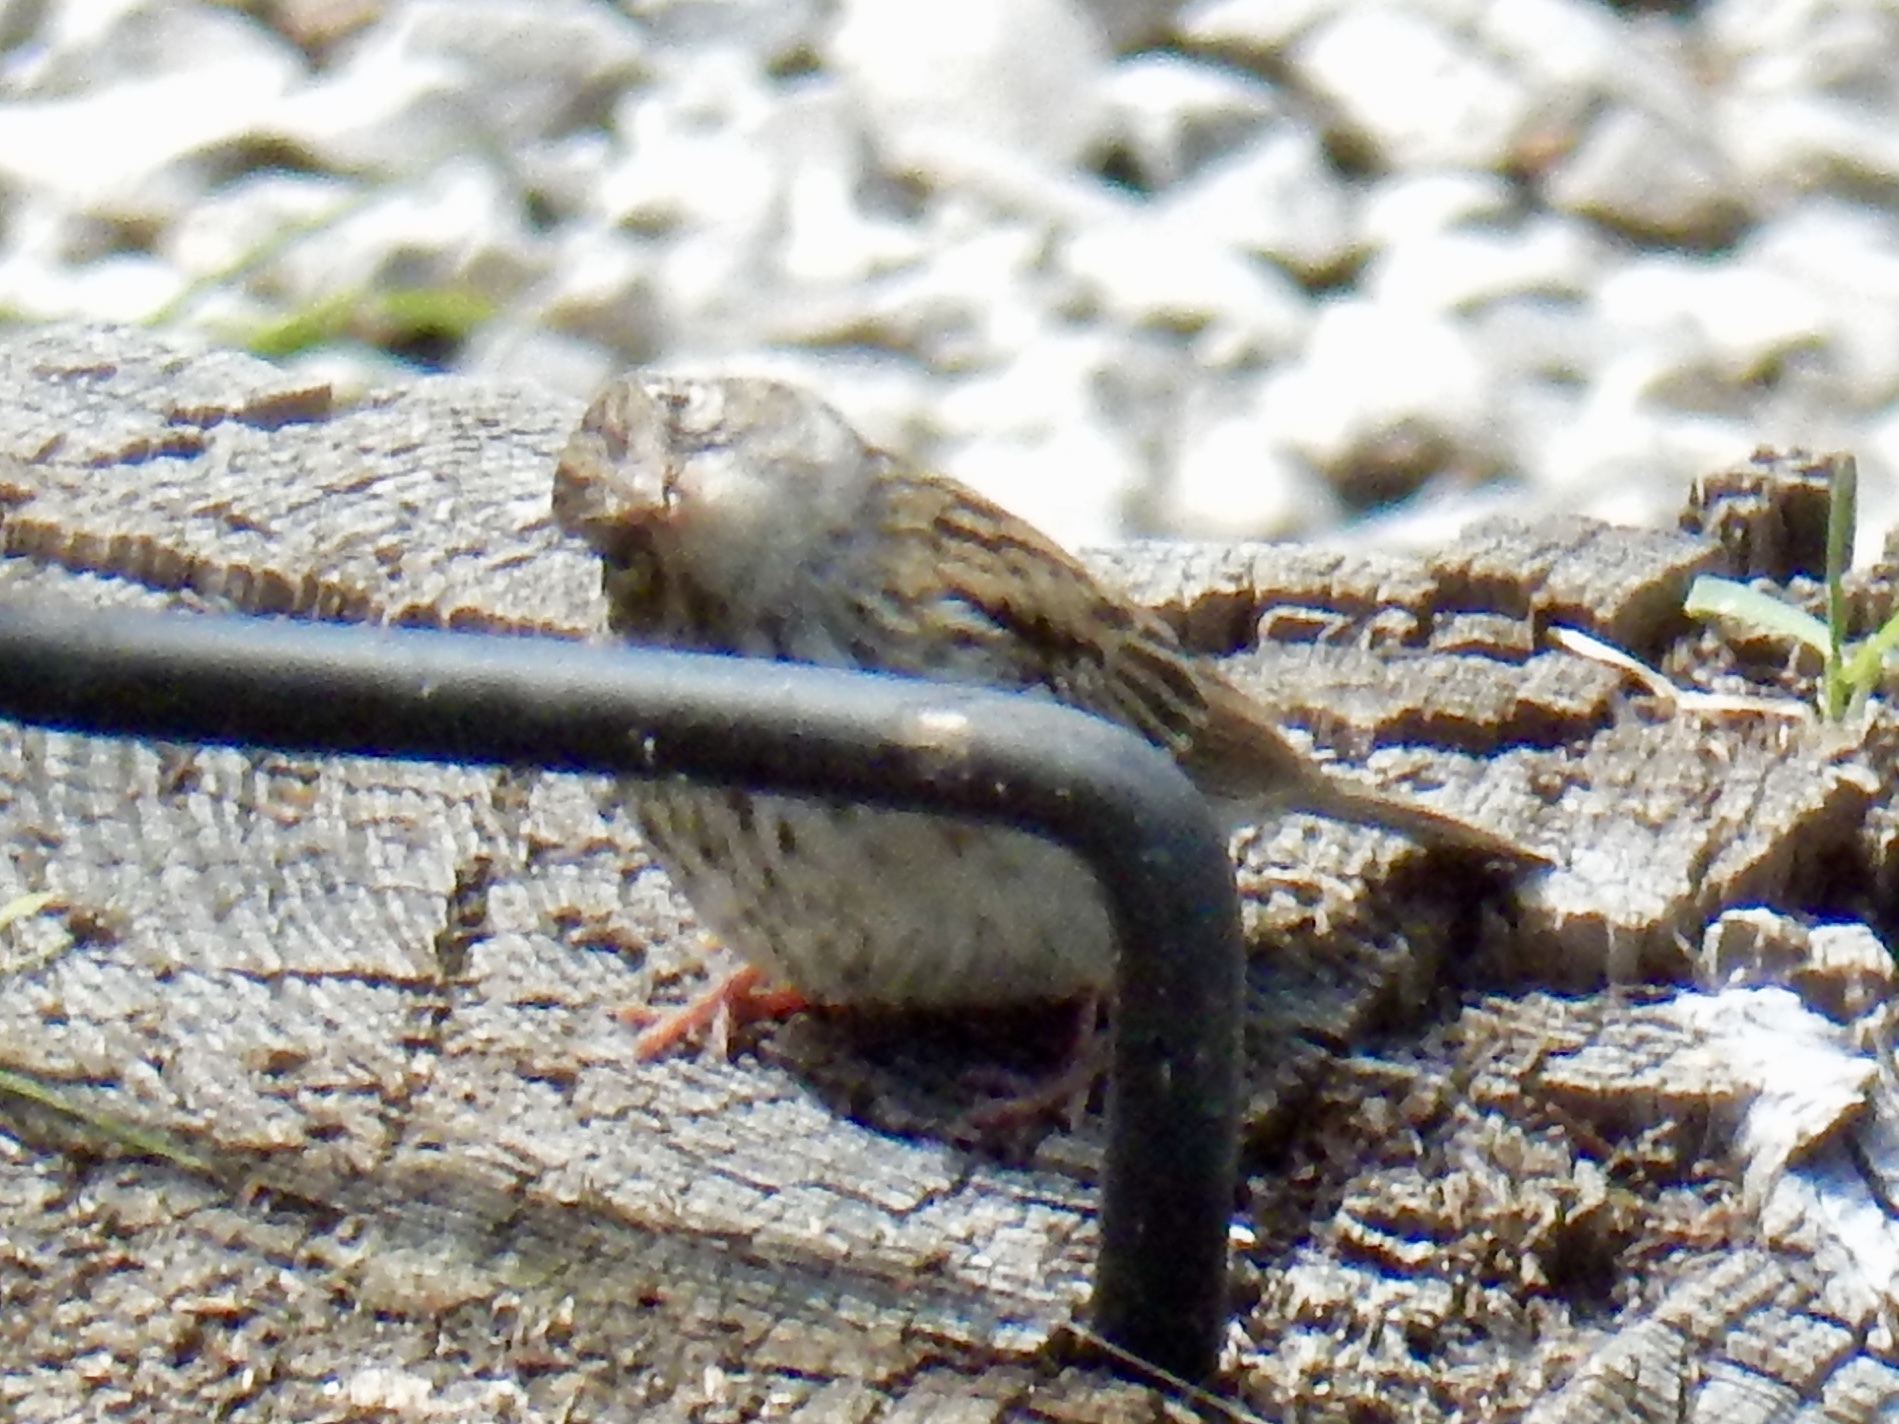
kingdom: Animalia
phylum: Chordata
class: Aves
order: Passeriformes
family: Passerellidae
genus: Spizella
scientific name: Spizella passerina
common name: Chipping sparrow
